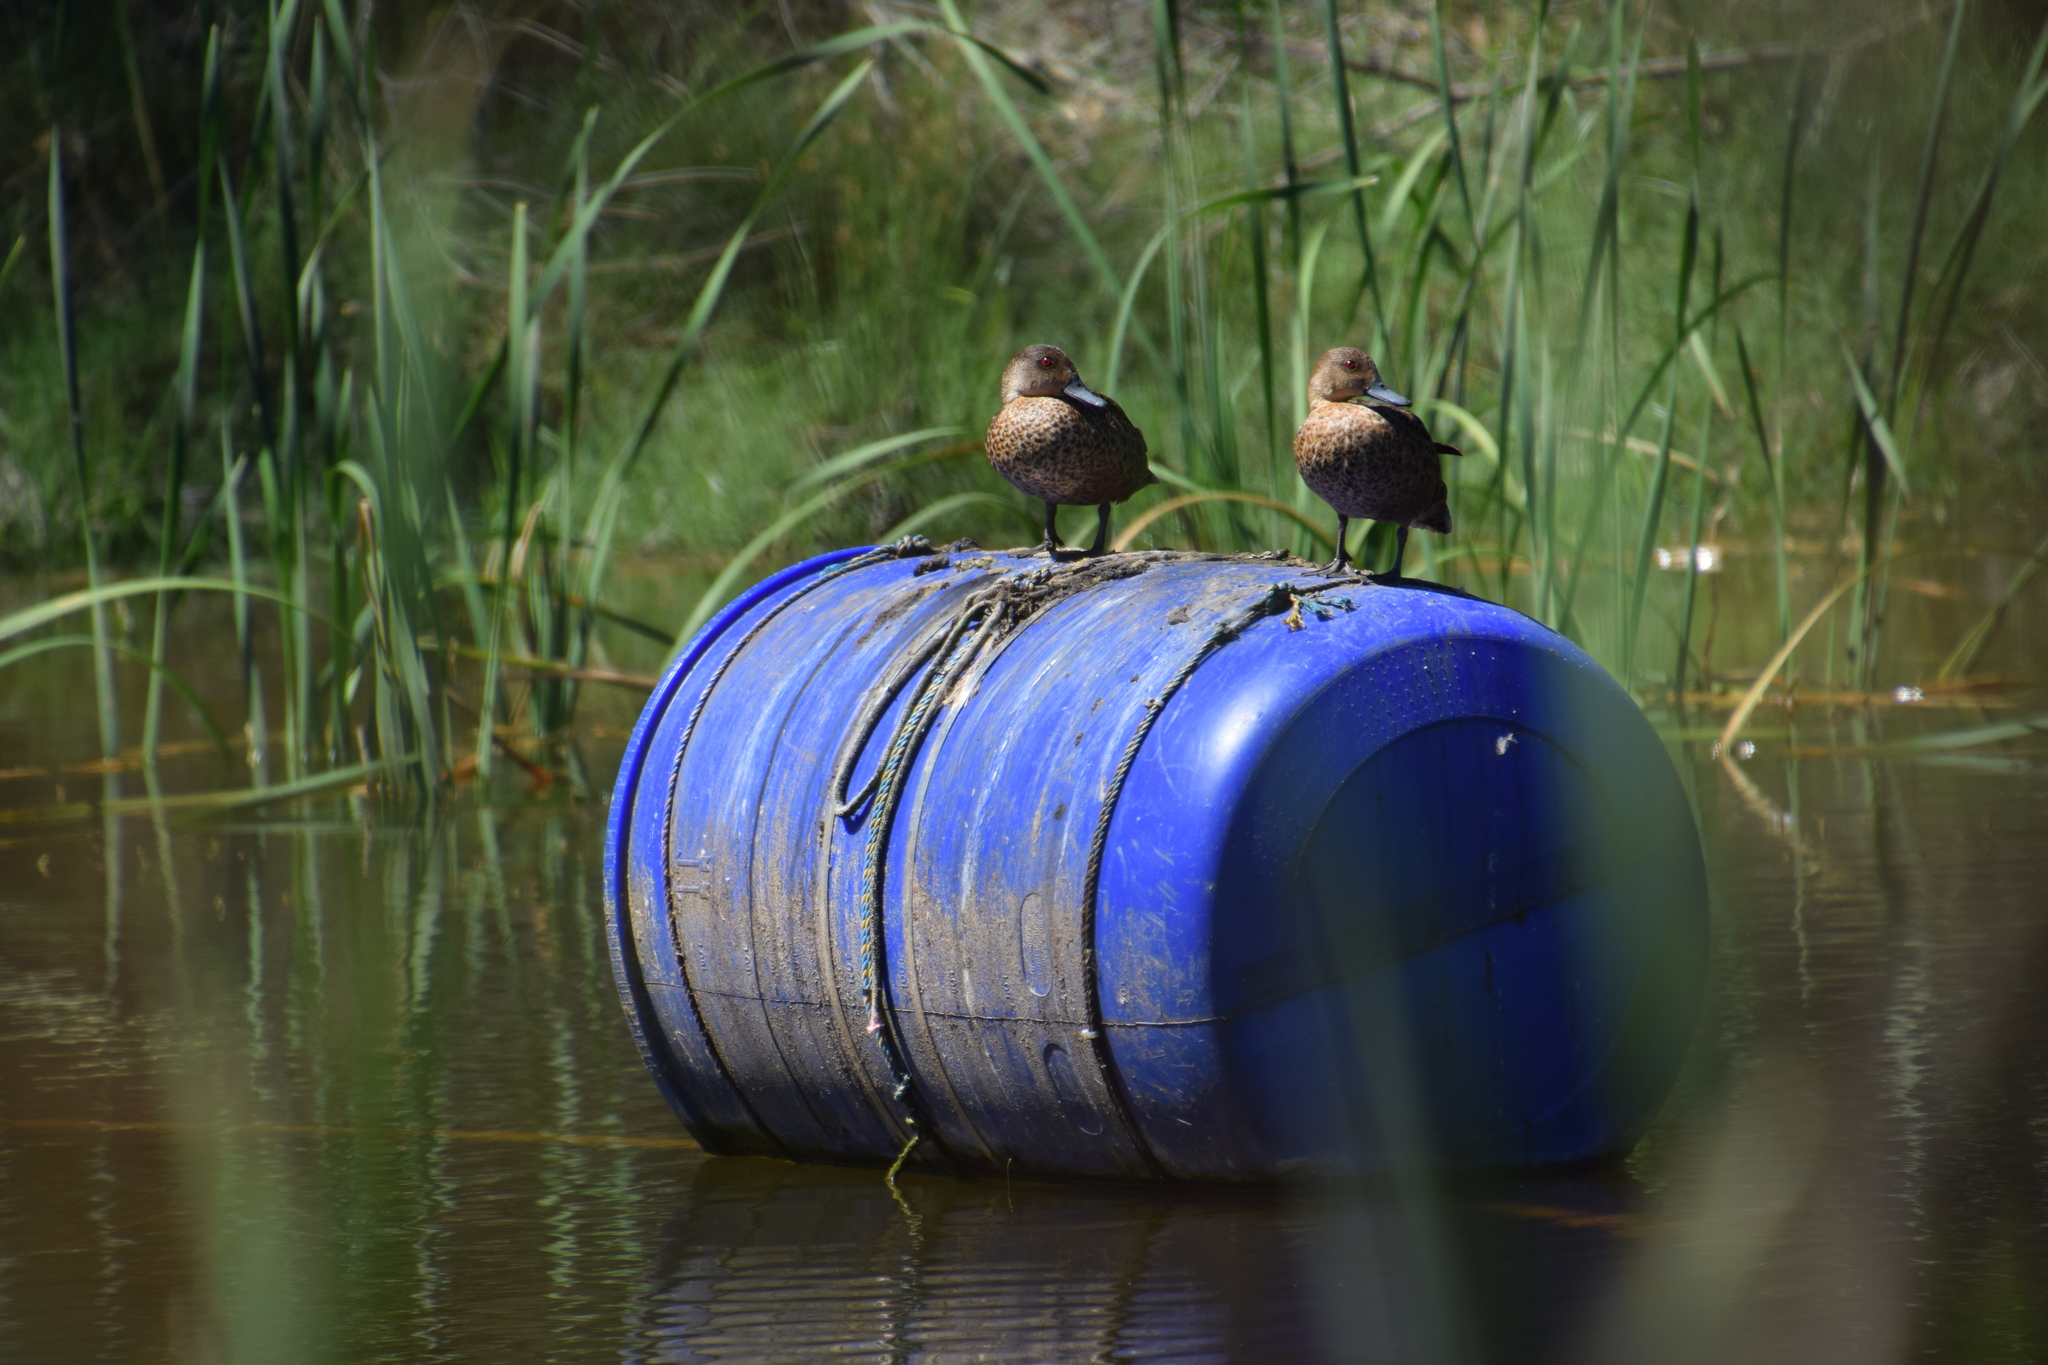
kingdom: Animalia
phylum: Chordata
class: Aves
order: Anseriformes
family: Anatidae
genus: Anas
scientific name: Anas gracilis
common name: Grey teal
